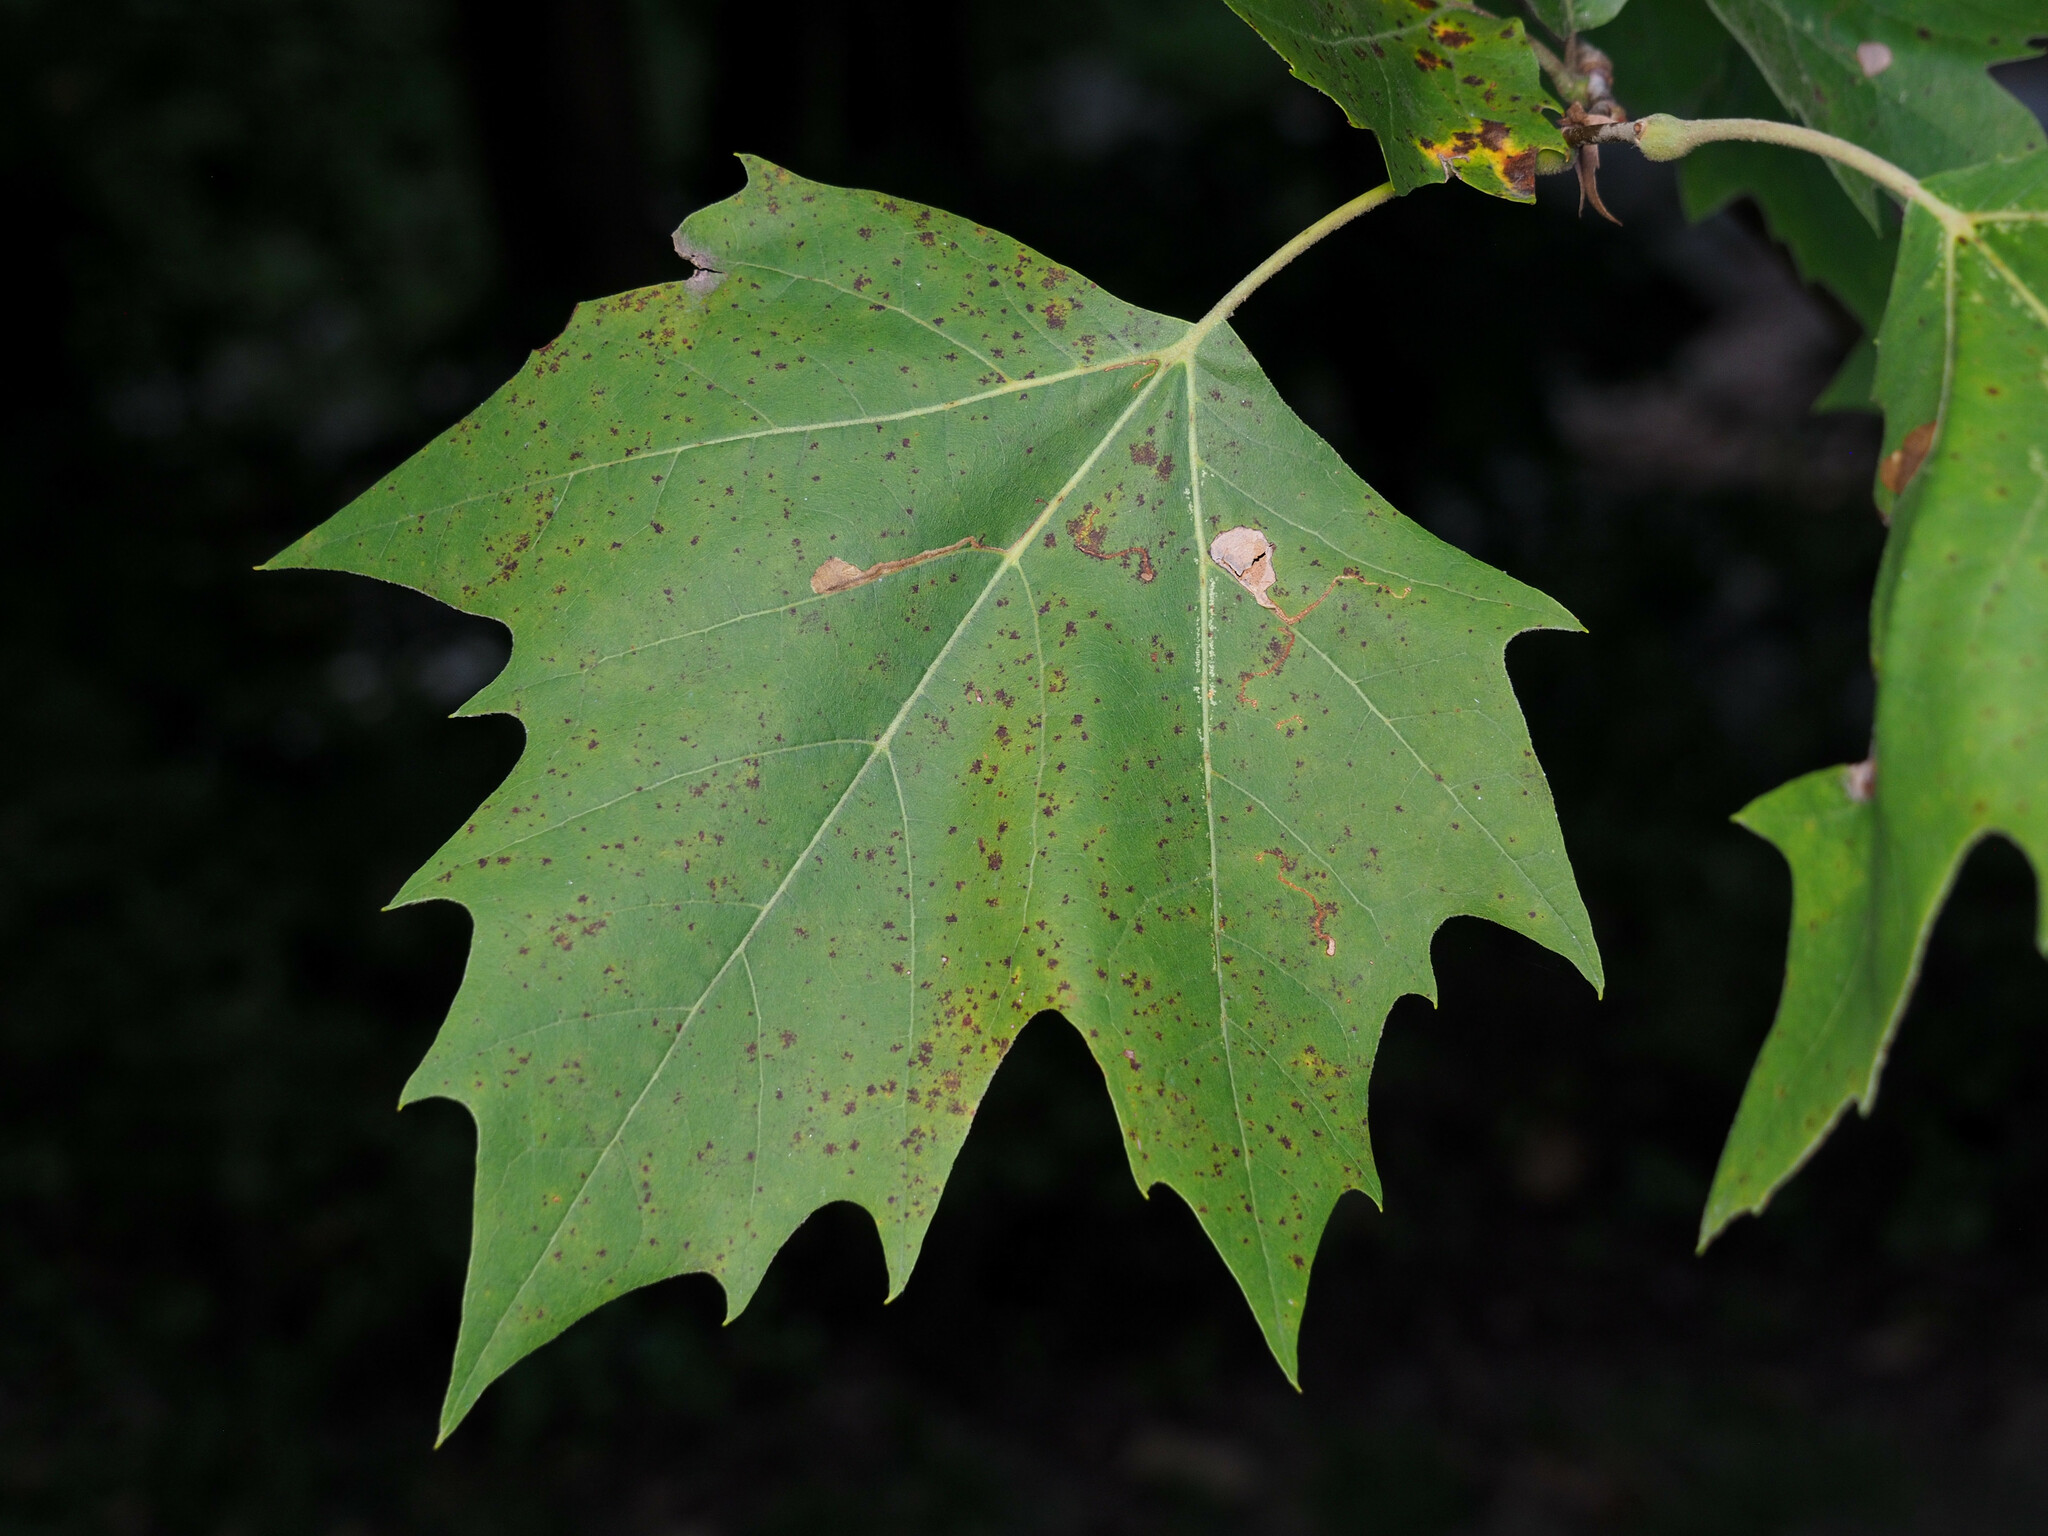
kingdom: Animalia
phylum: Arthropoda
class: Insecta
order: Lepidoptera
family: Nepticulidae
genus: Ectoedemia
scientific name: Ectoedemia clemensella
